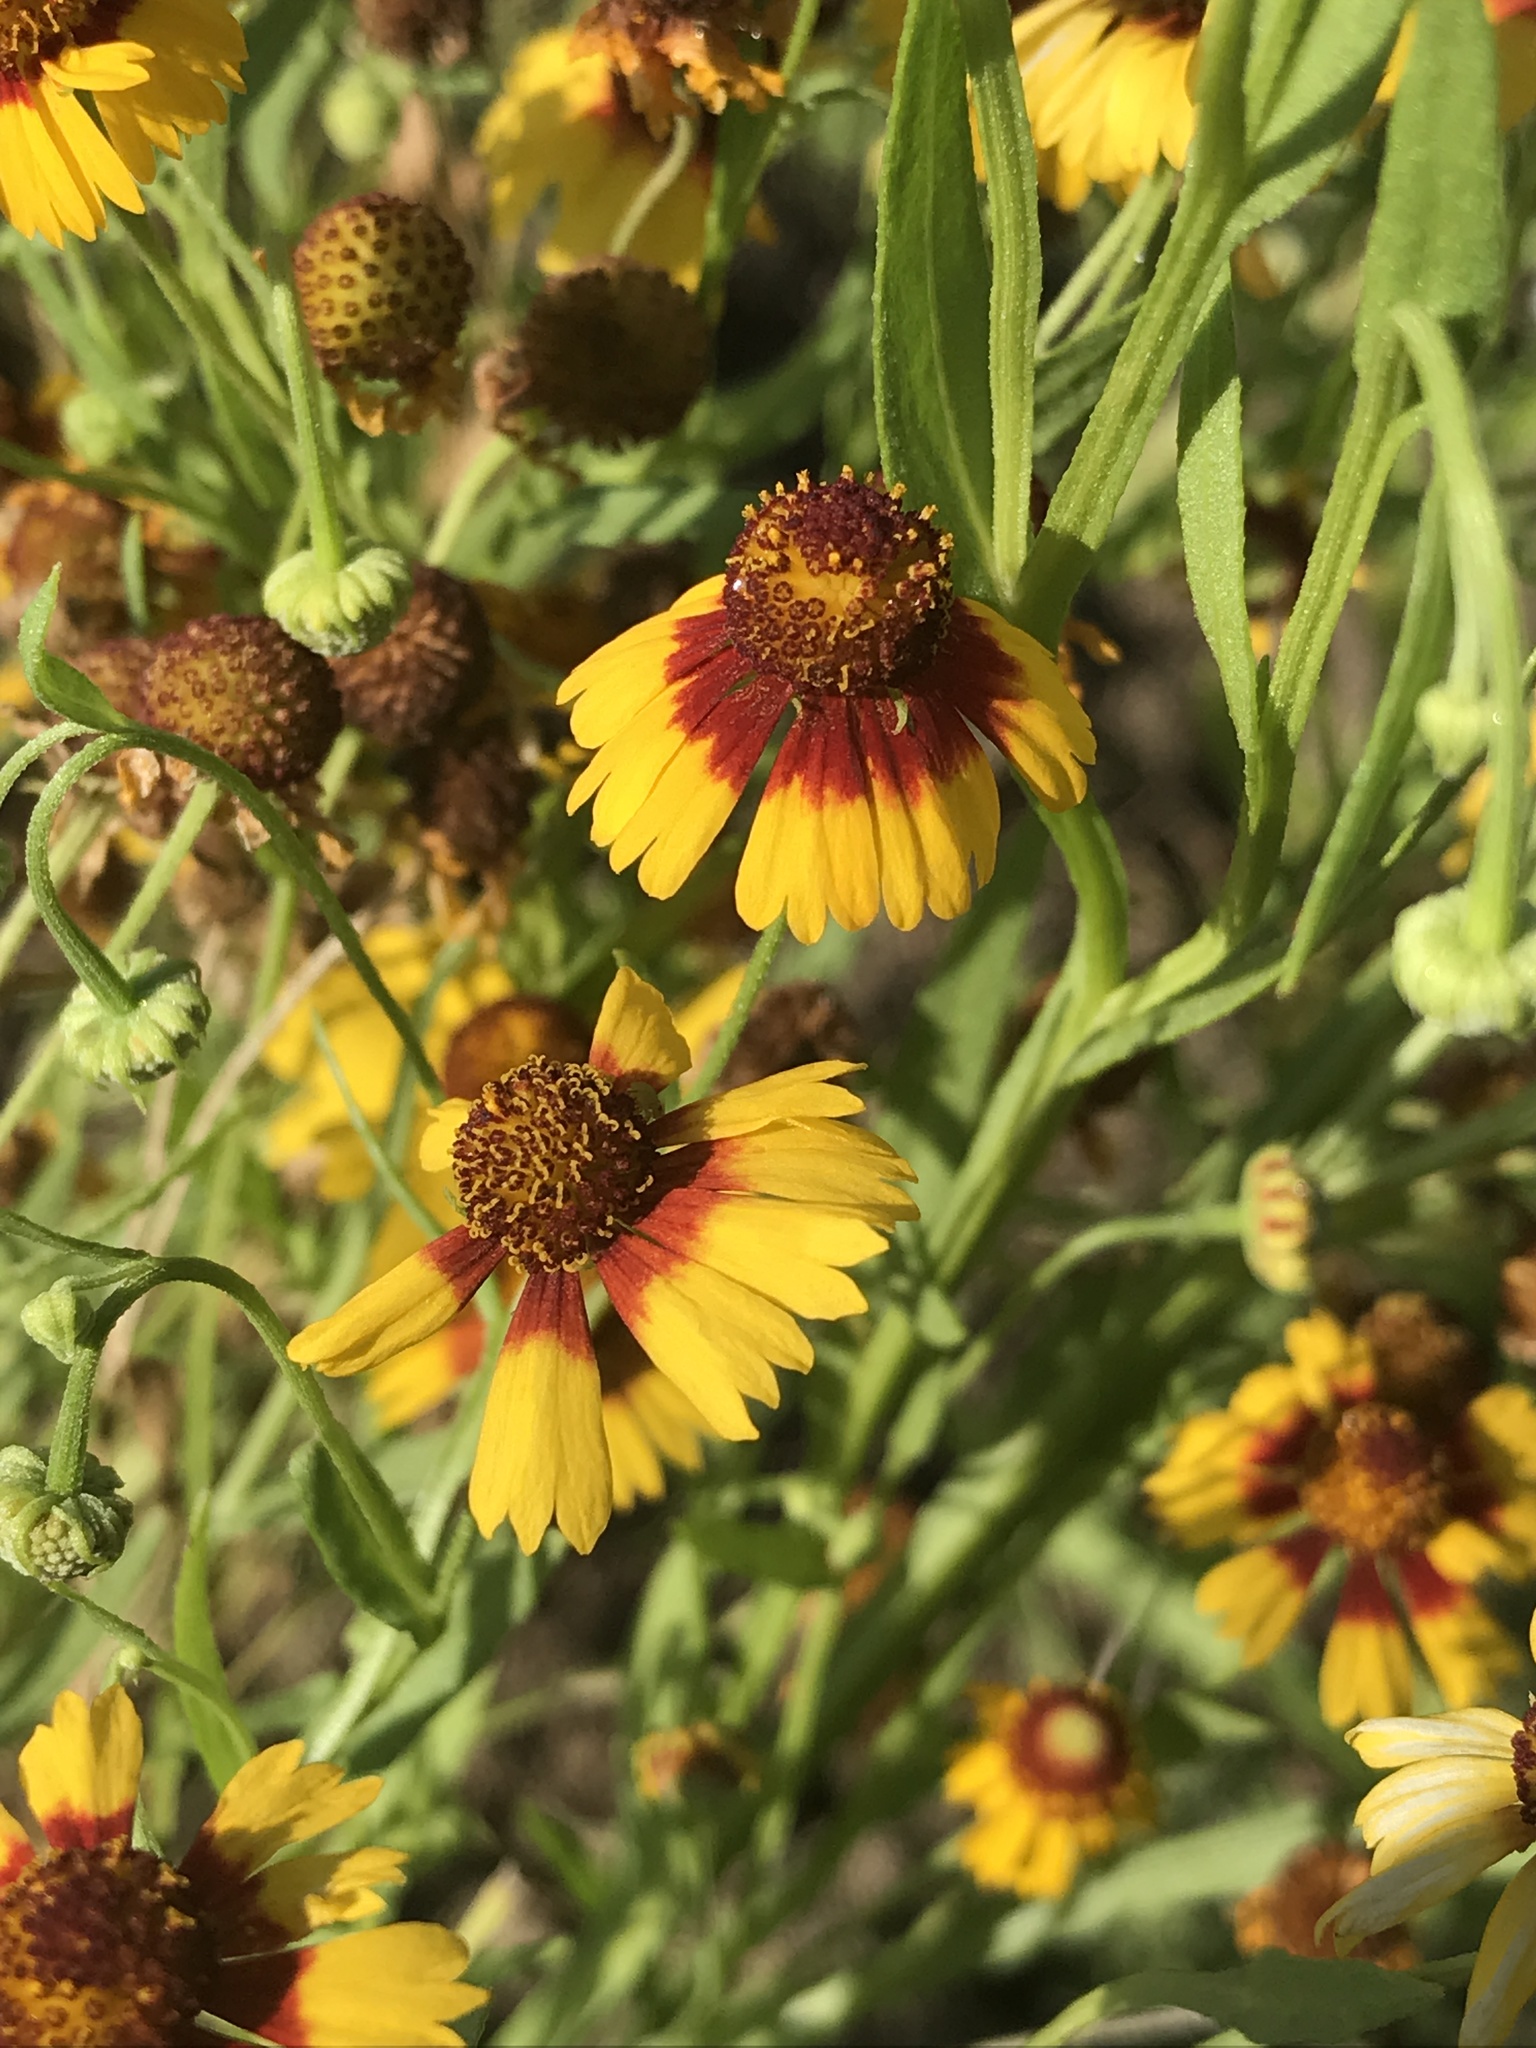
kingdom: Plantae
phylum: Tracheophyta
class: Magnoliopsida
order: Asterales
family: Asteraceae
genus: Helenium
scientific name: Helenium elegans
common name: Pretty sneezeweed
